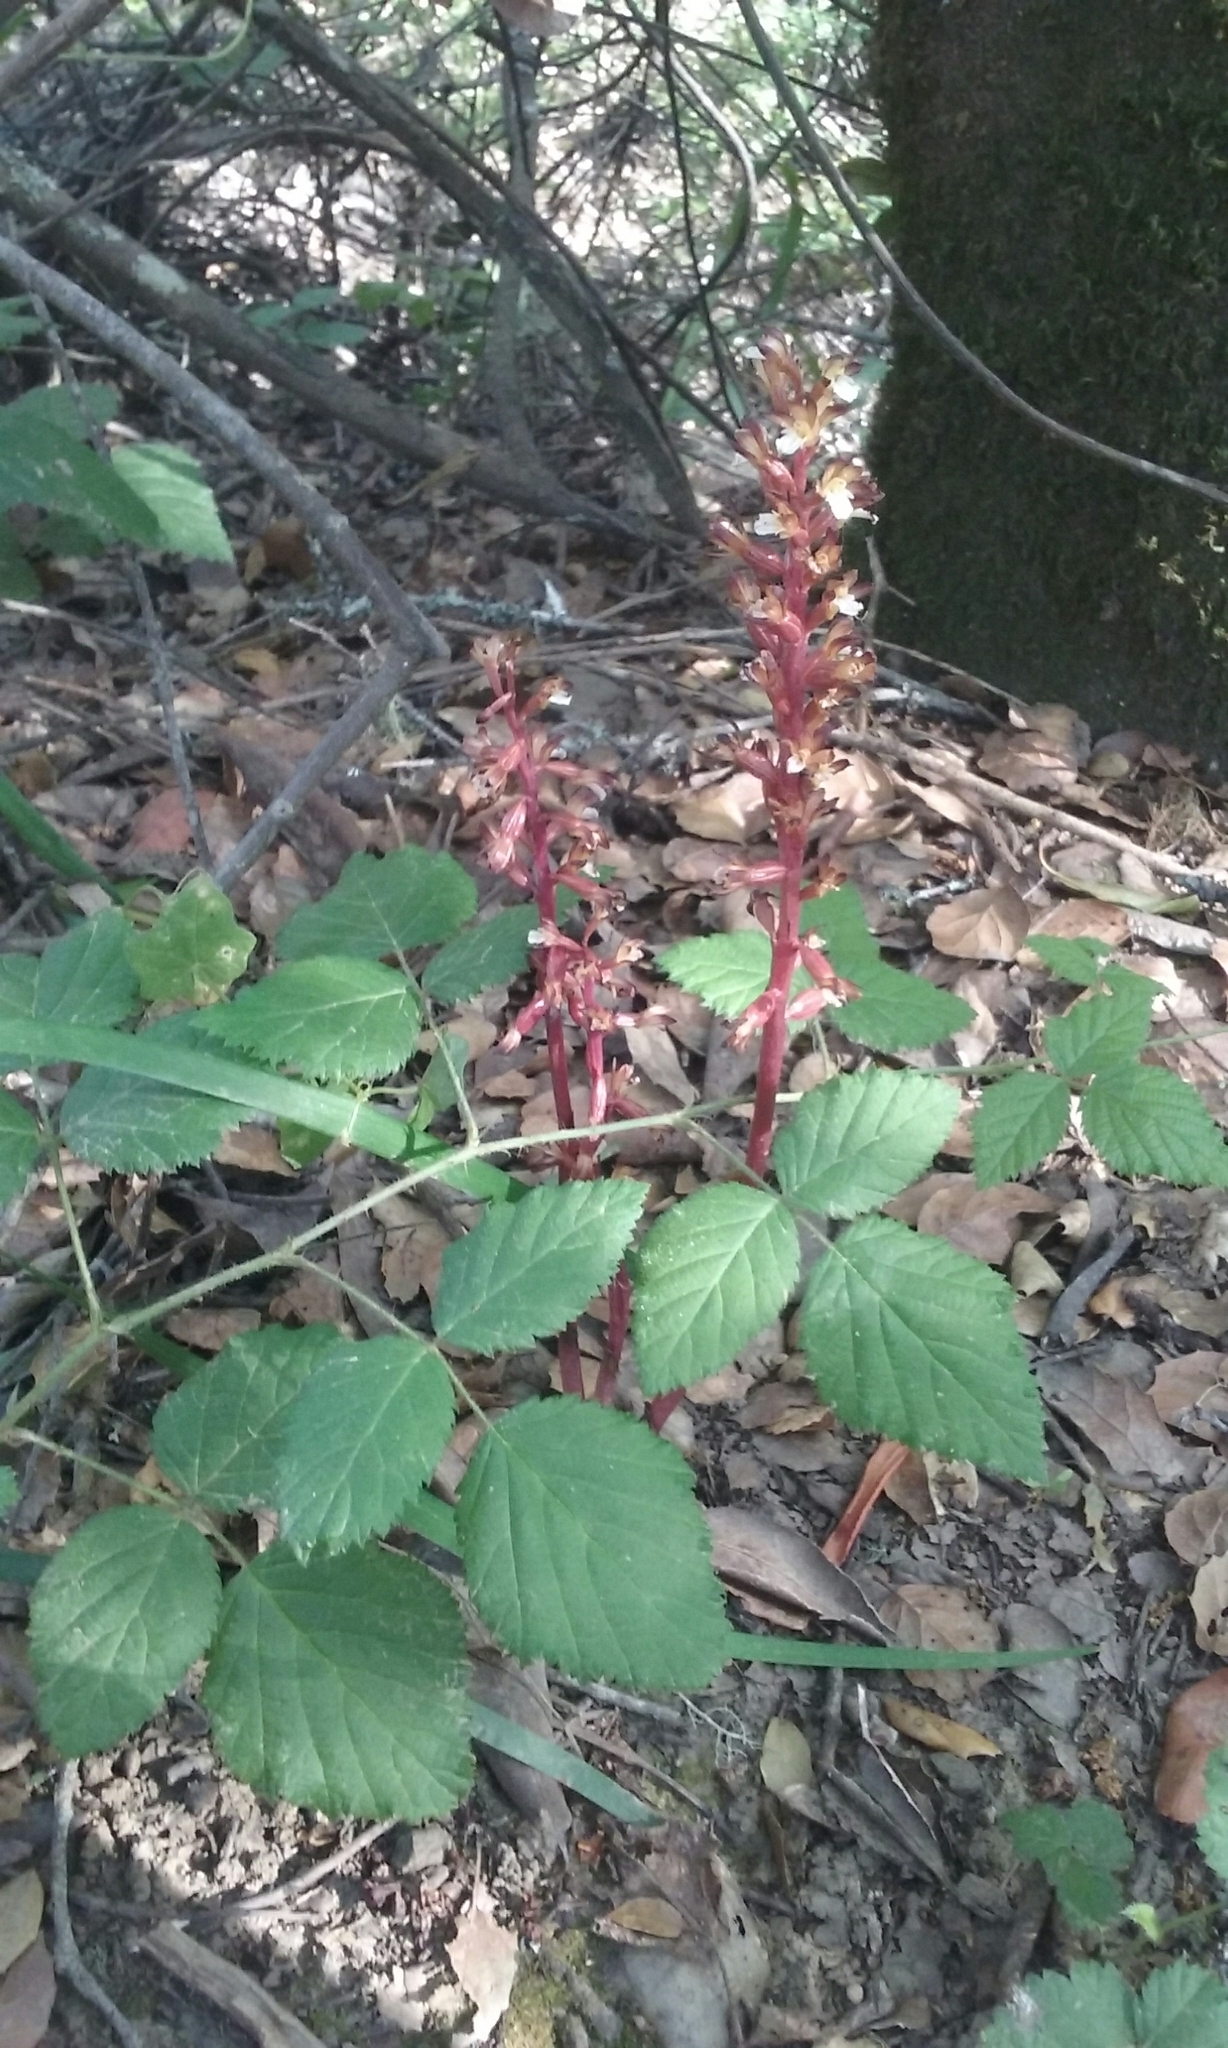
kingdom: Plantae
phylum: Tracheophyta
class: Liliopsida
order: Asparagales
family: Orchidaceae
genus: Corallorhiza
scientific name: Corallorhiza maculata
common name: Spotted coralroot
